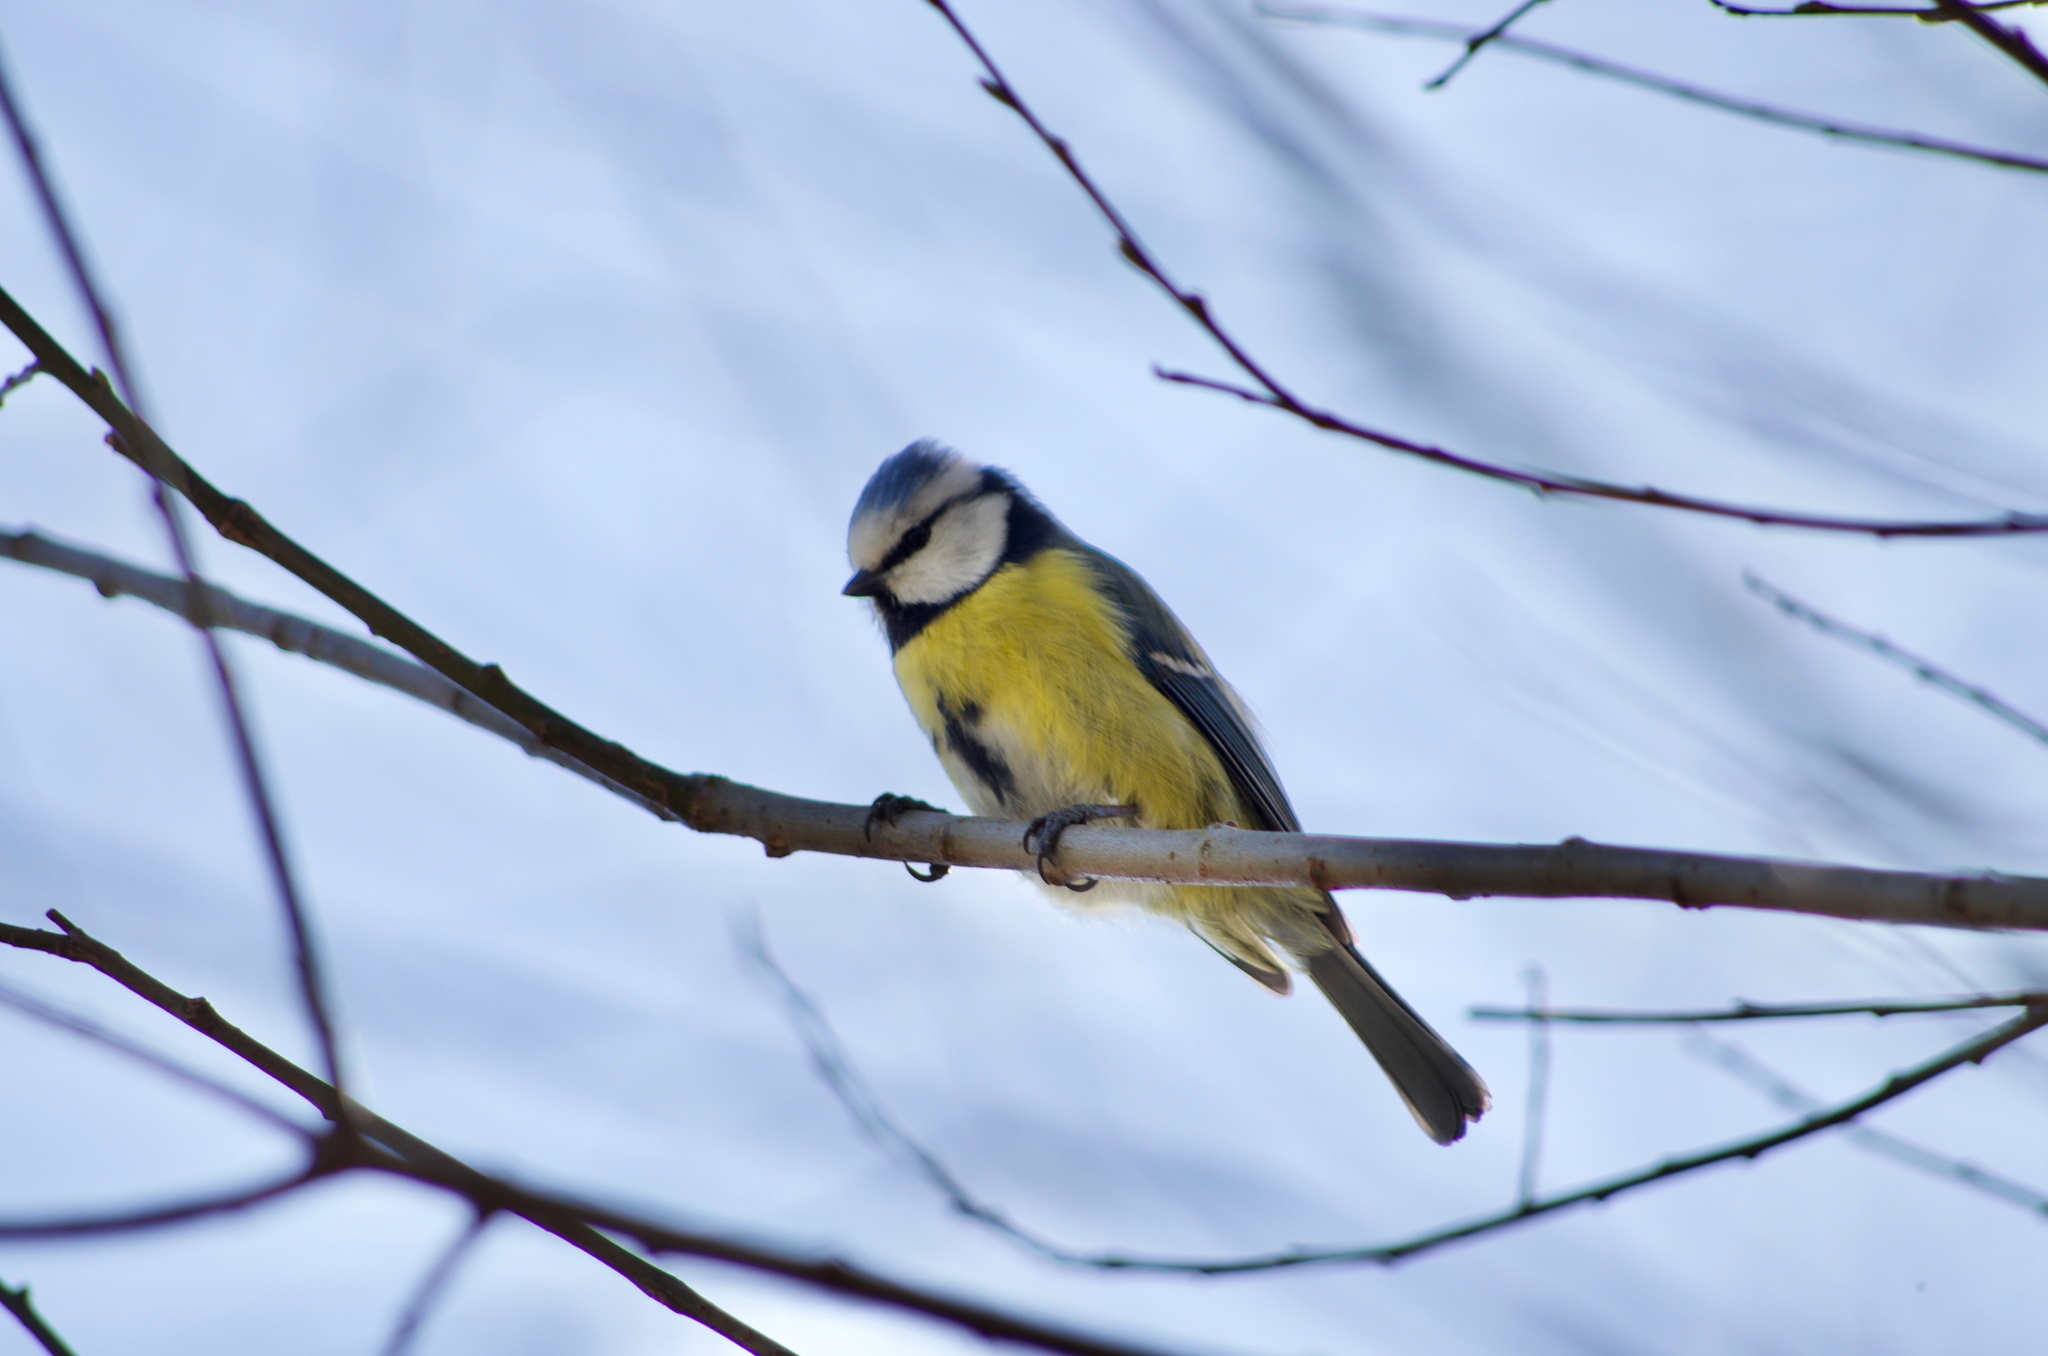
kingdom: Animalia
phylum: Chordata
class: Aves
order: Passeriformes
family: Paridae
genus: Cyanistes
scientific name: Cyanistes caeruleus
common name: Eurasian blue tit
